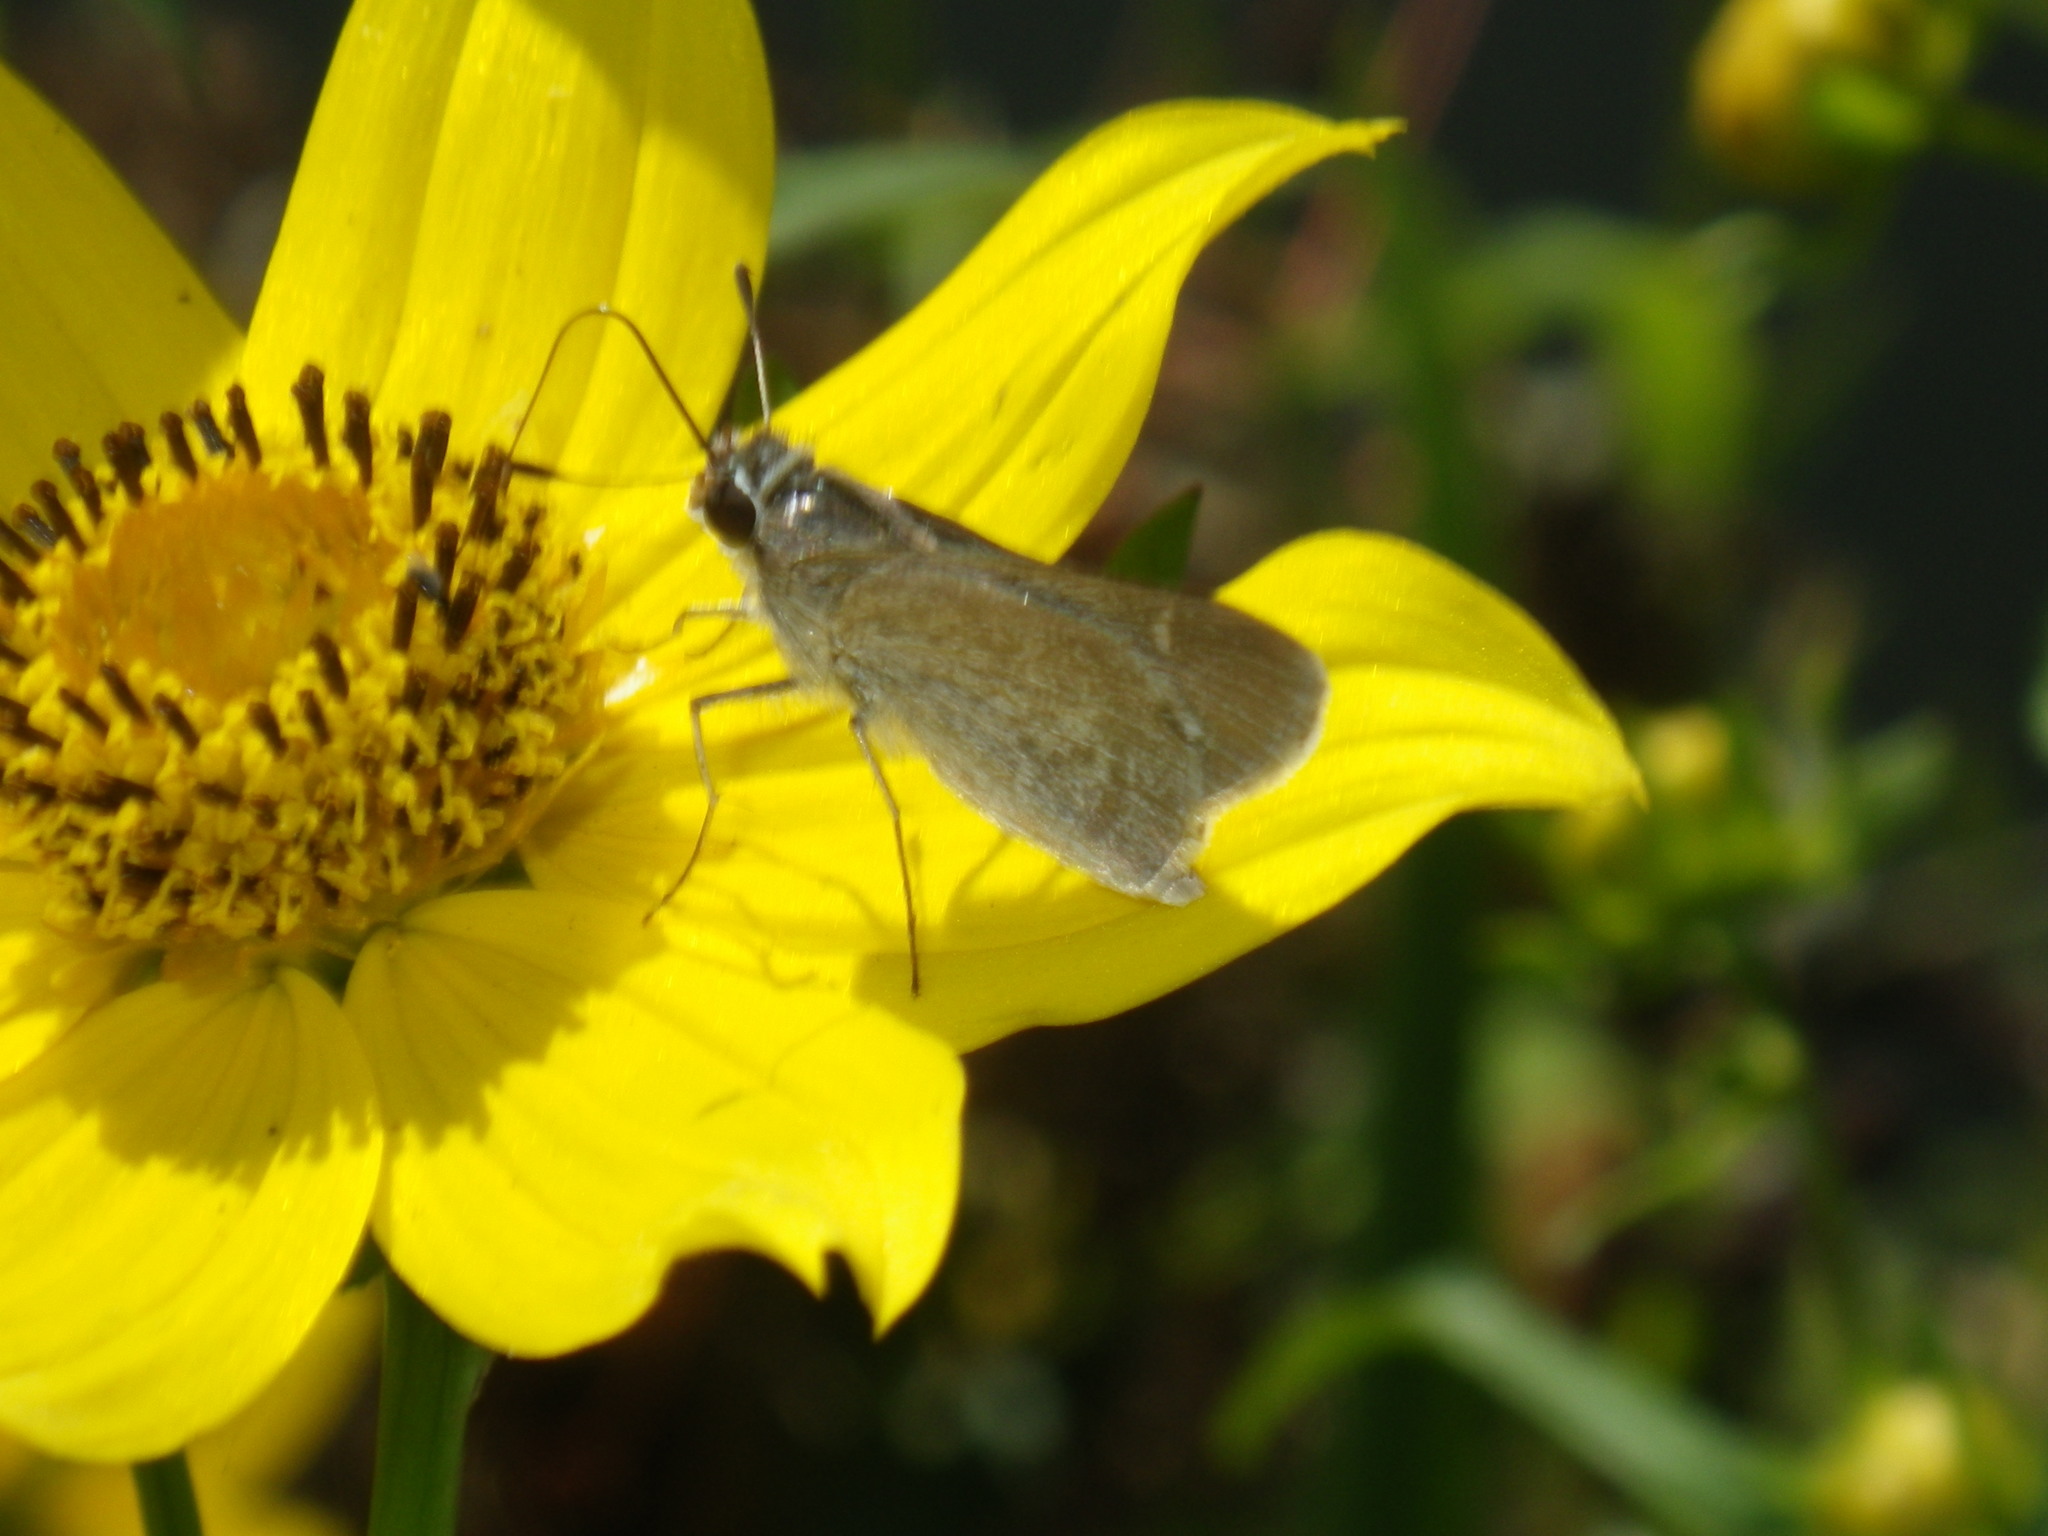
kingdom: Animalia
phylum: Arthropoda
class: Insecta
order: Lepidoptera
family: Hesperiidae
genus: Lerodea
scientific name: Lerodea eufala
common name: Eufala skipper
